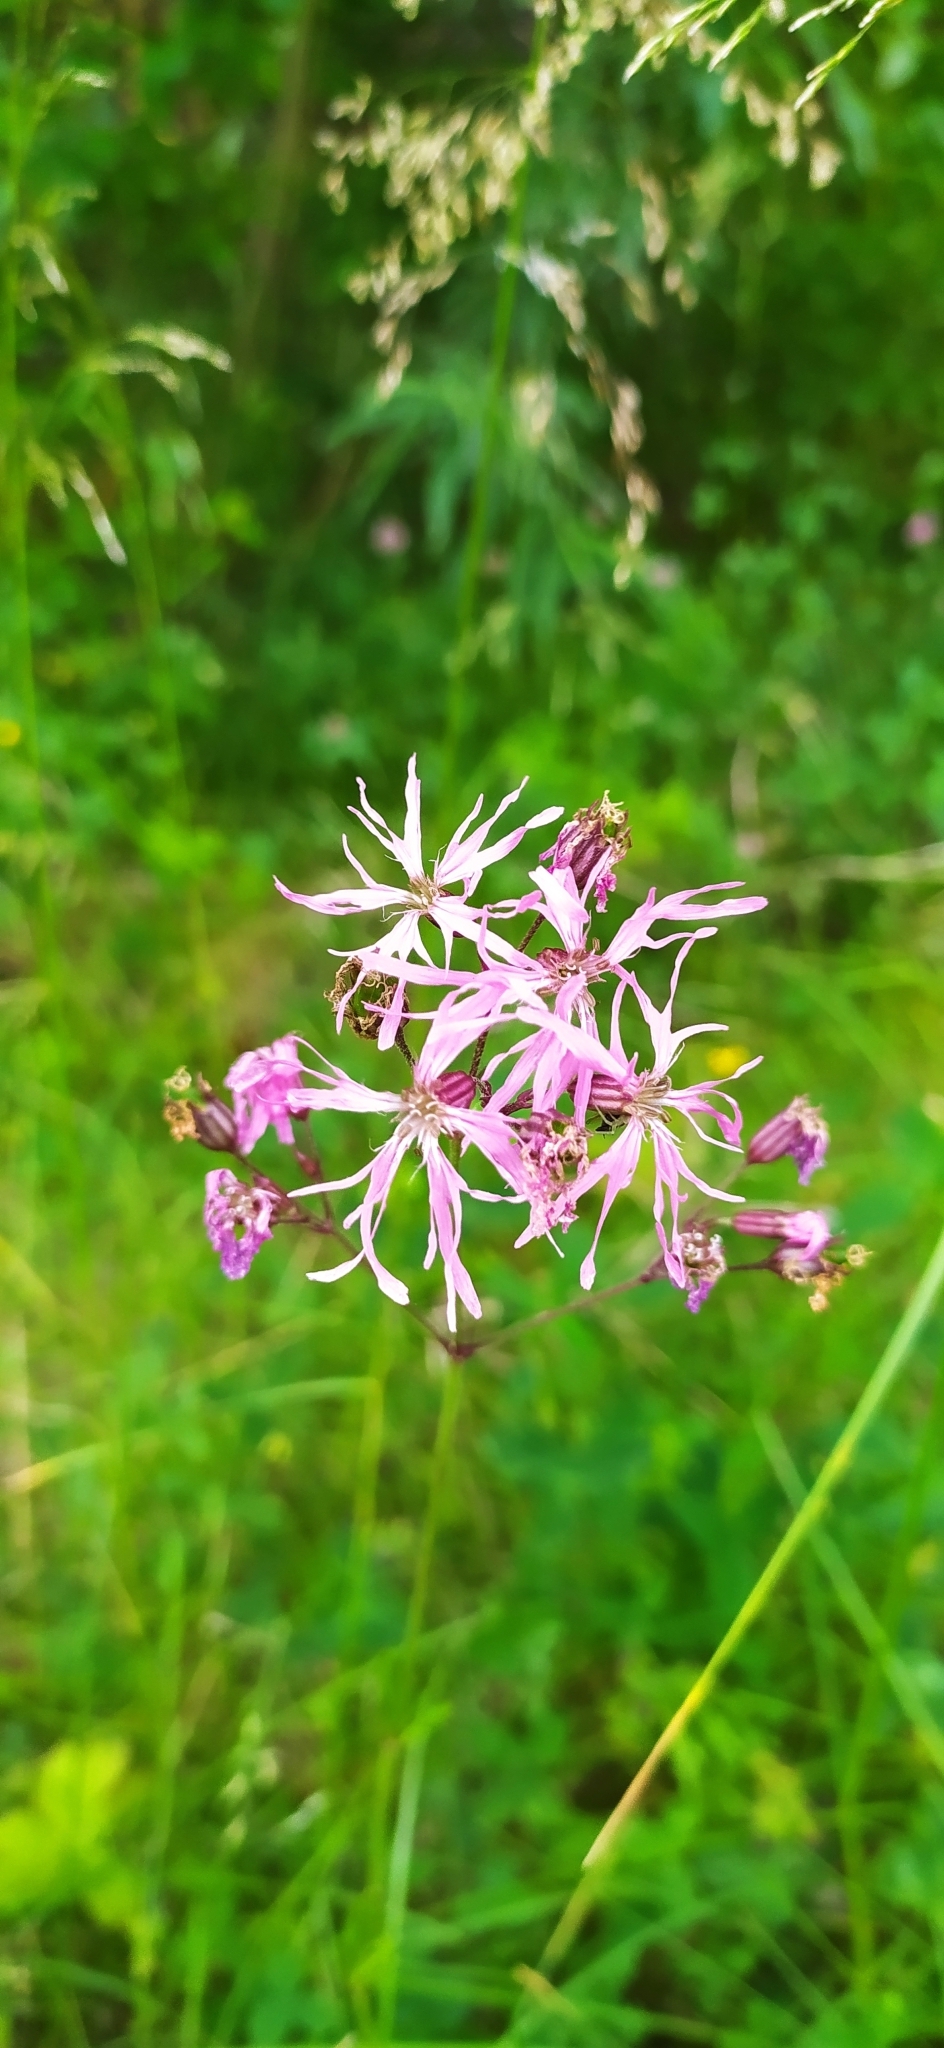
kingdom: Plantae
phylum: Tracheophyta
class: Magnoliopsida
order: Caryophyllales
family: Caryophyllaceae
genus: Silene
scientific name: Silene flos-cuculi
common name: Ragged-robin
